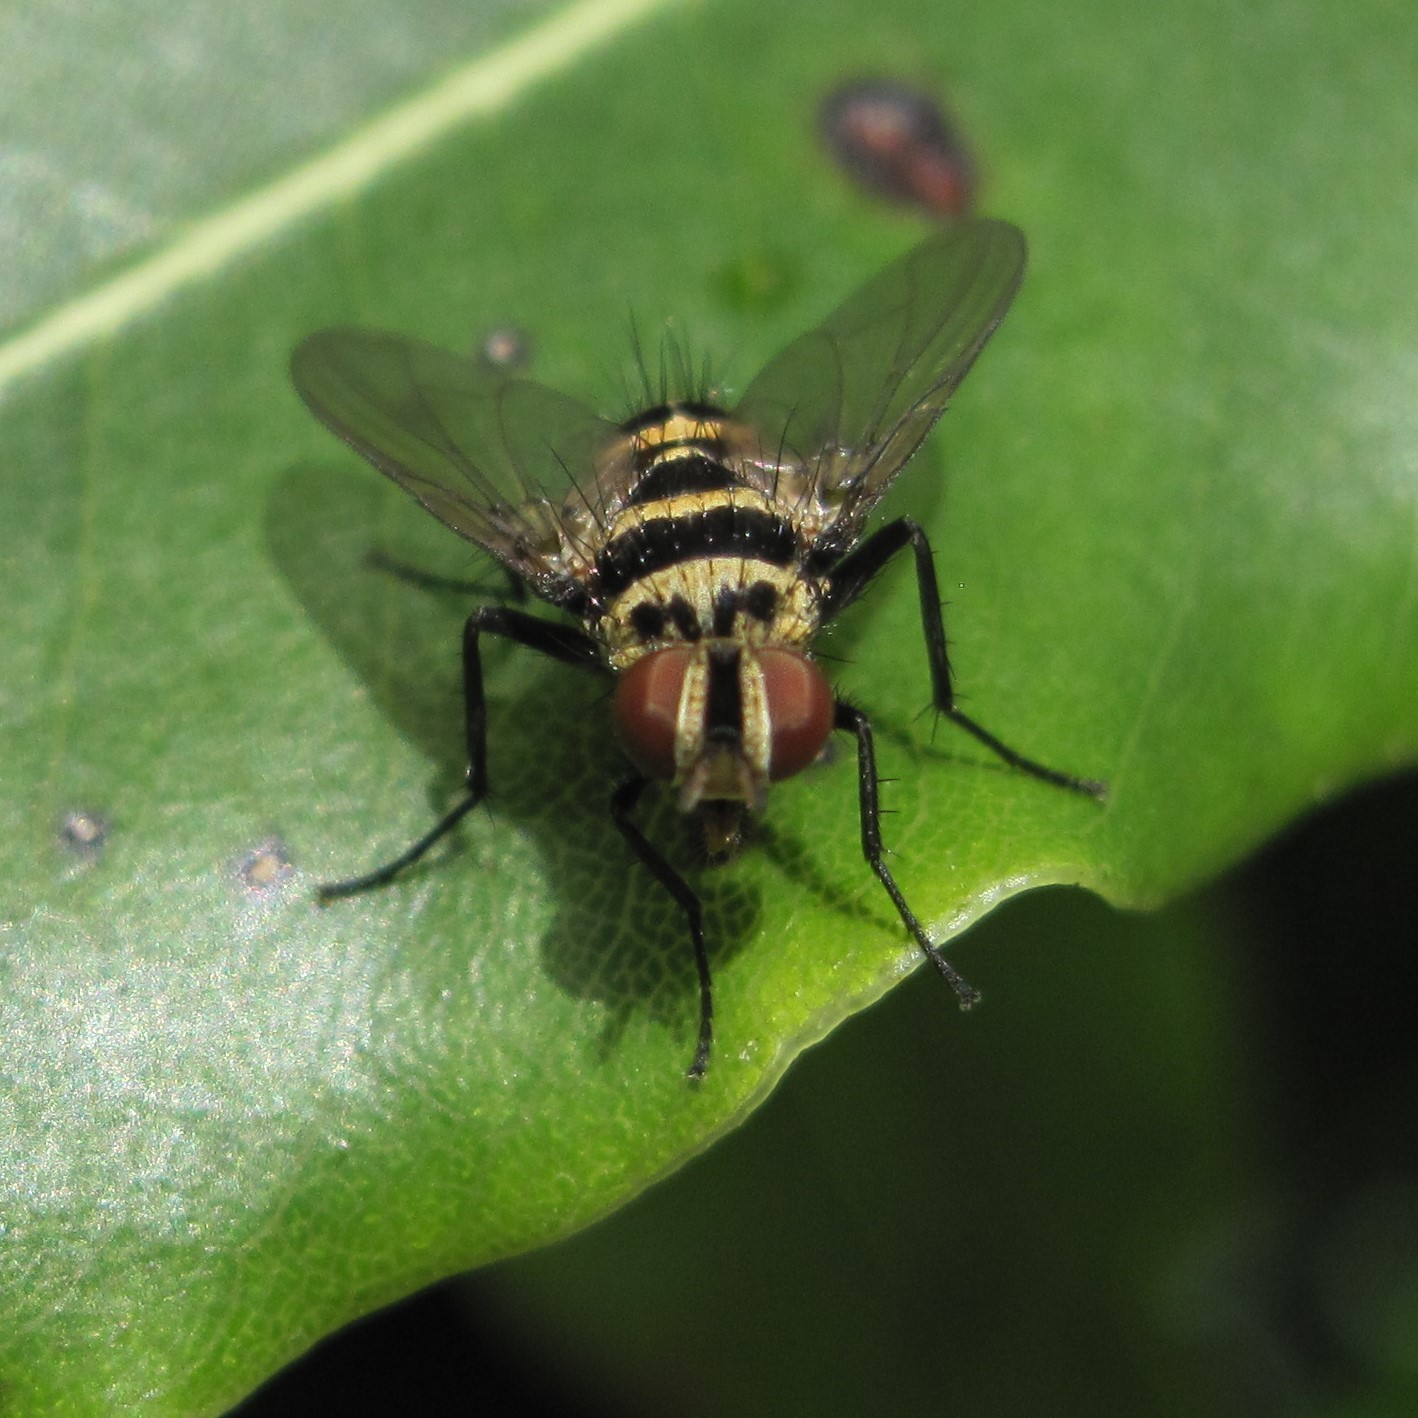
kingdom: Animalia
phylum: Arthropoda
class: Insecta
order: Diptera
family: Tachinidae
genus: Trigonospila
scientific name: Trigonospila brevifacies
